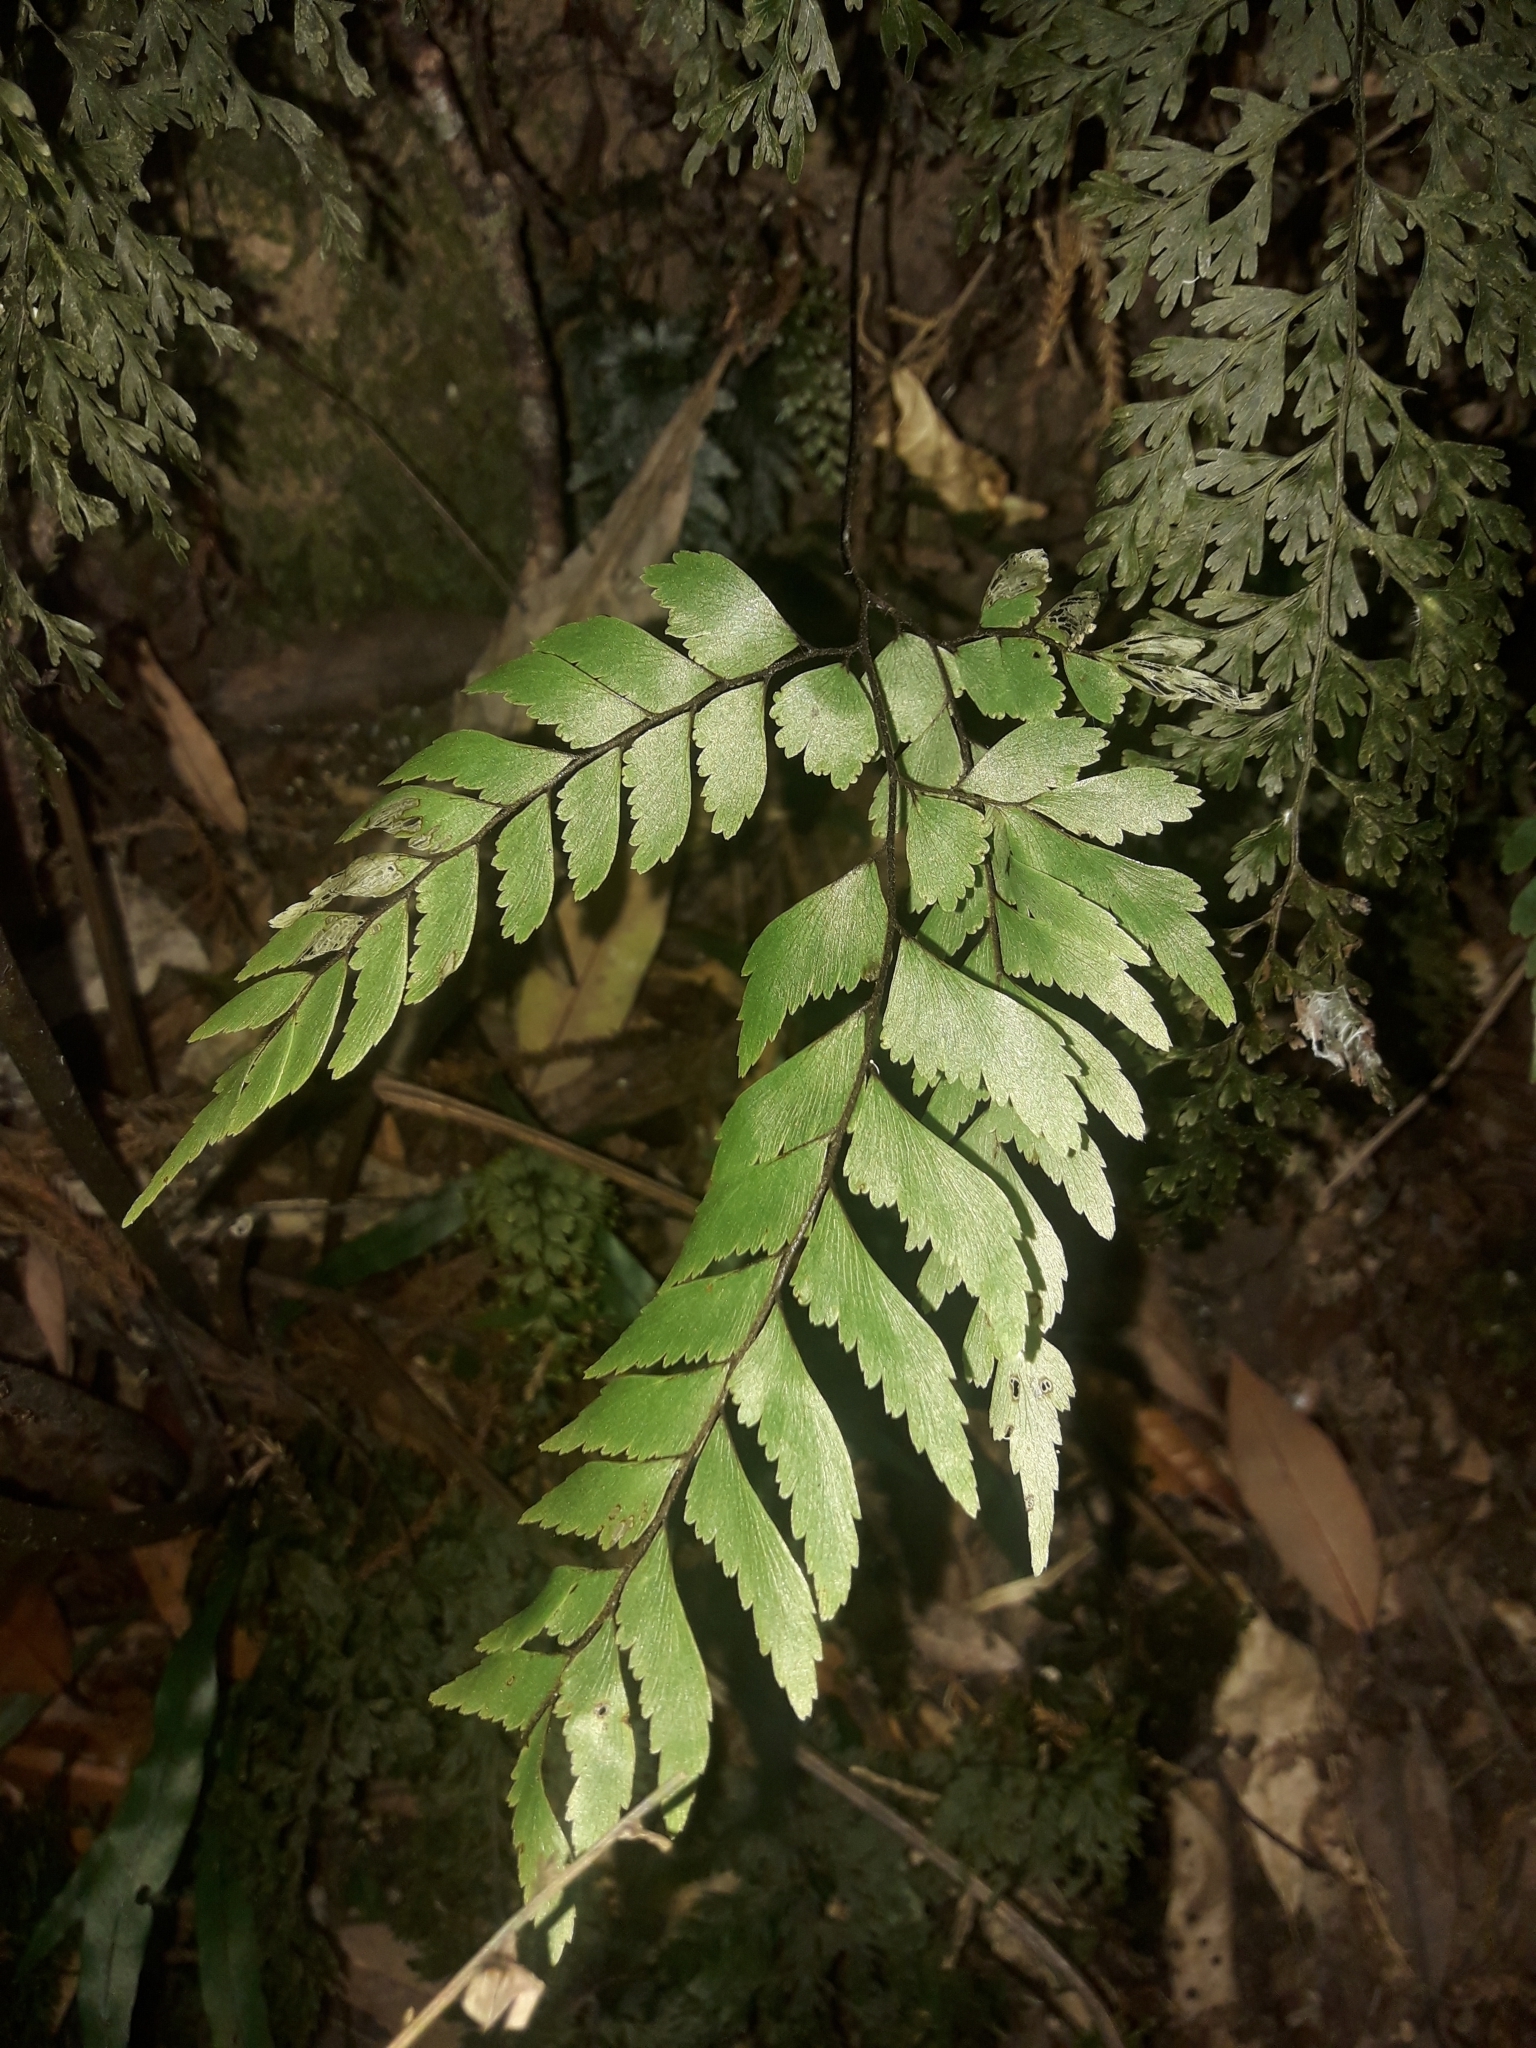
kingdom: Plantae
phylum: Tracheophyta
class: Polypodiopsida
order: Polypodiales
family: Pteridaceae
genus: Adiantum
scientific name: Adiantum fulvum
